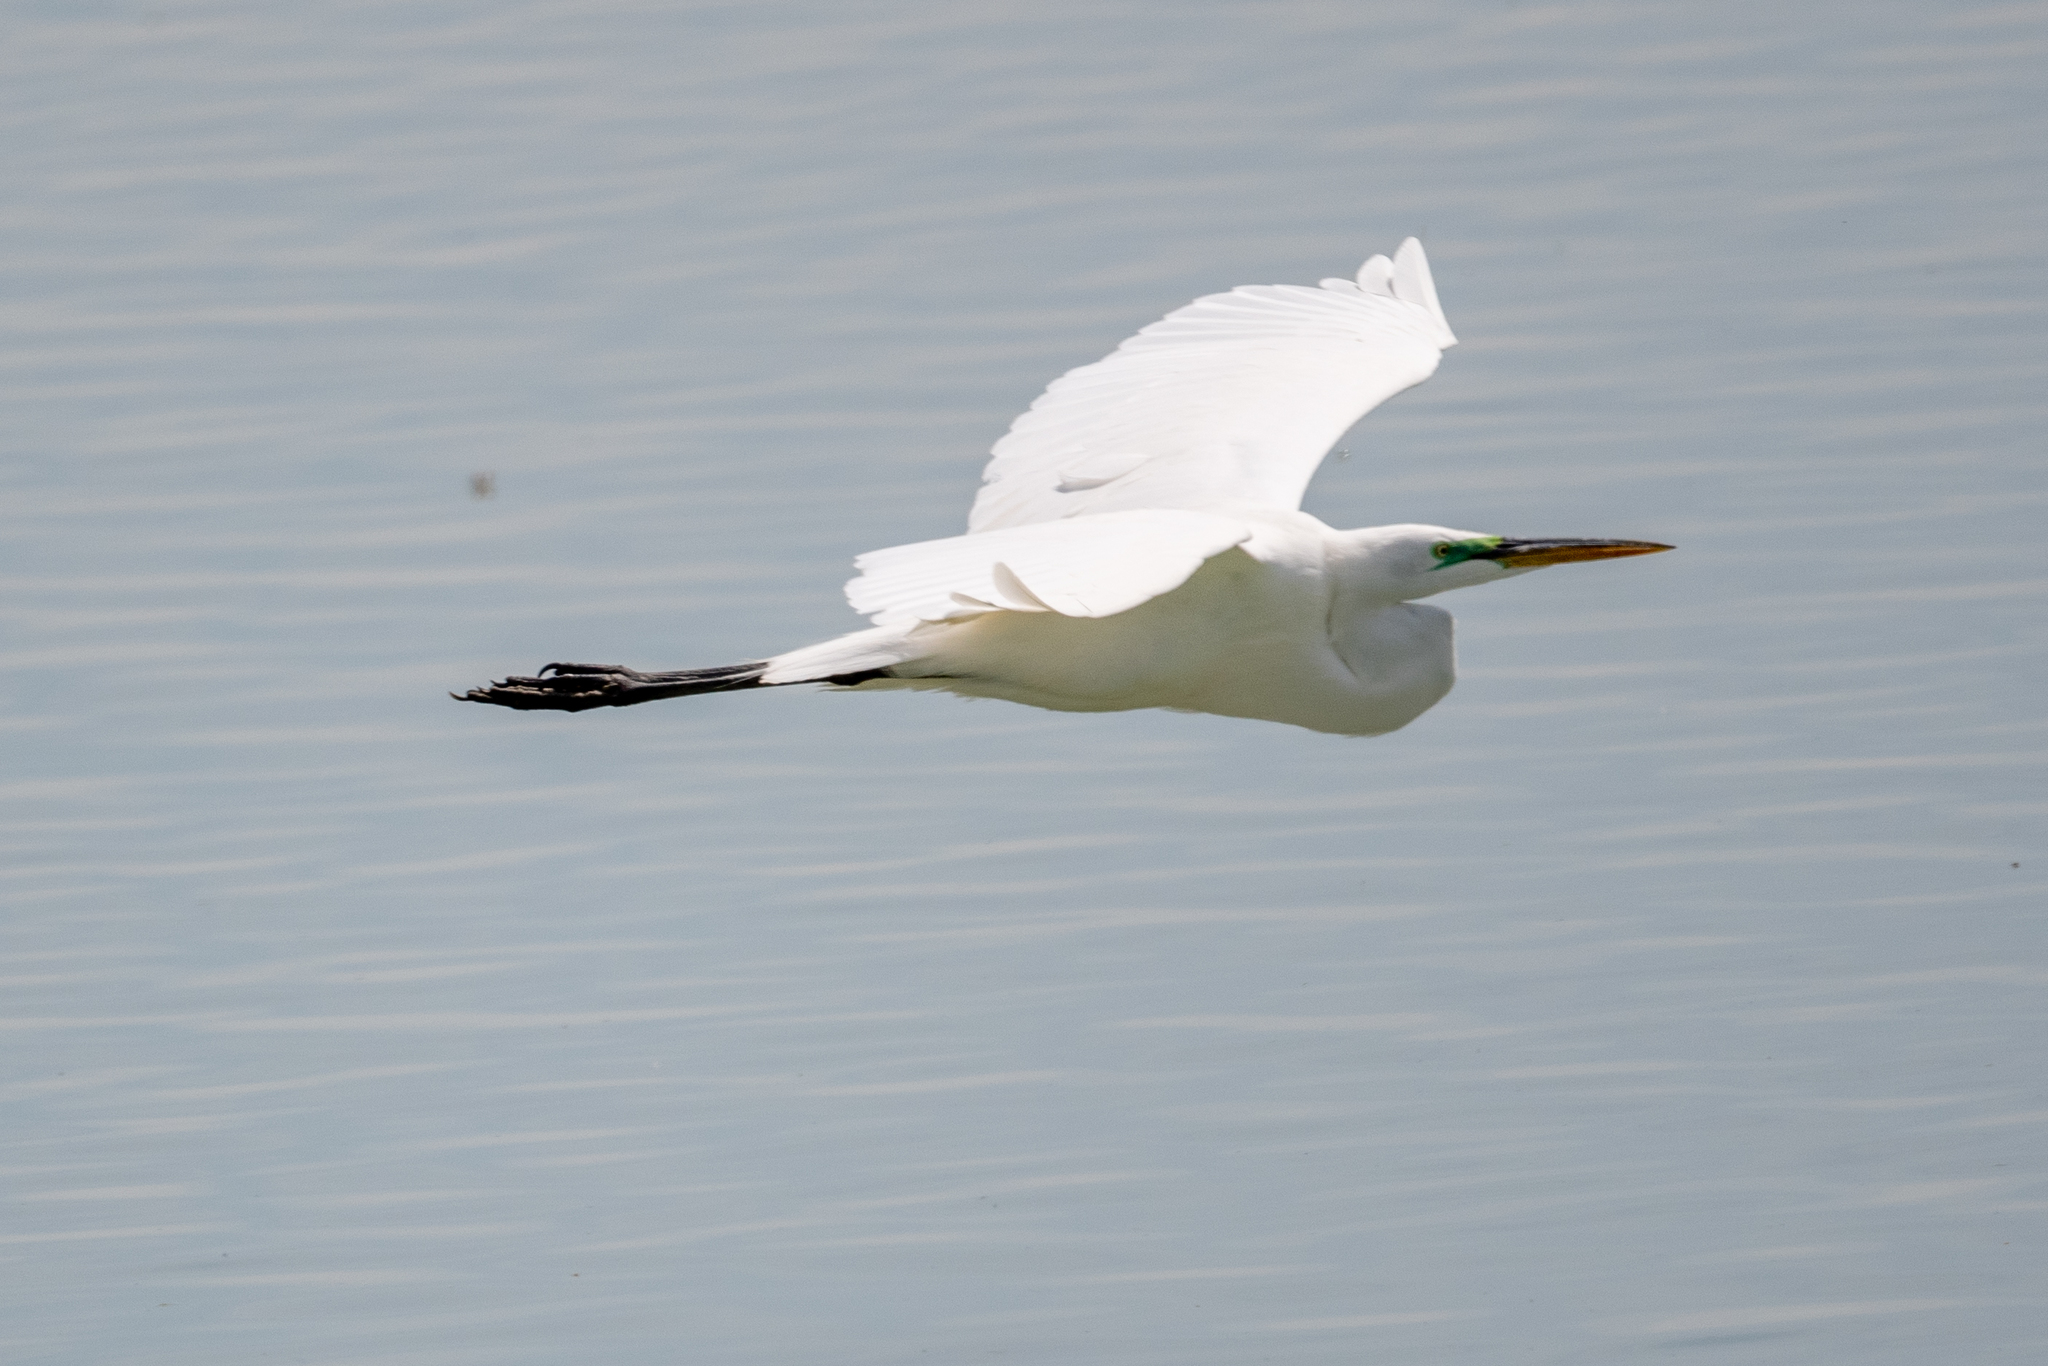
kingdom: Animalia
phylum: Chordata
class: Aves
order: Pelecaniformes
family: Ardeidae
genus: Ardea
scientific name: Ardea alba
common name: Great egret
